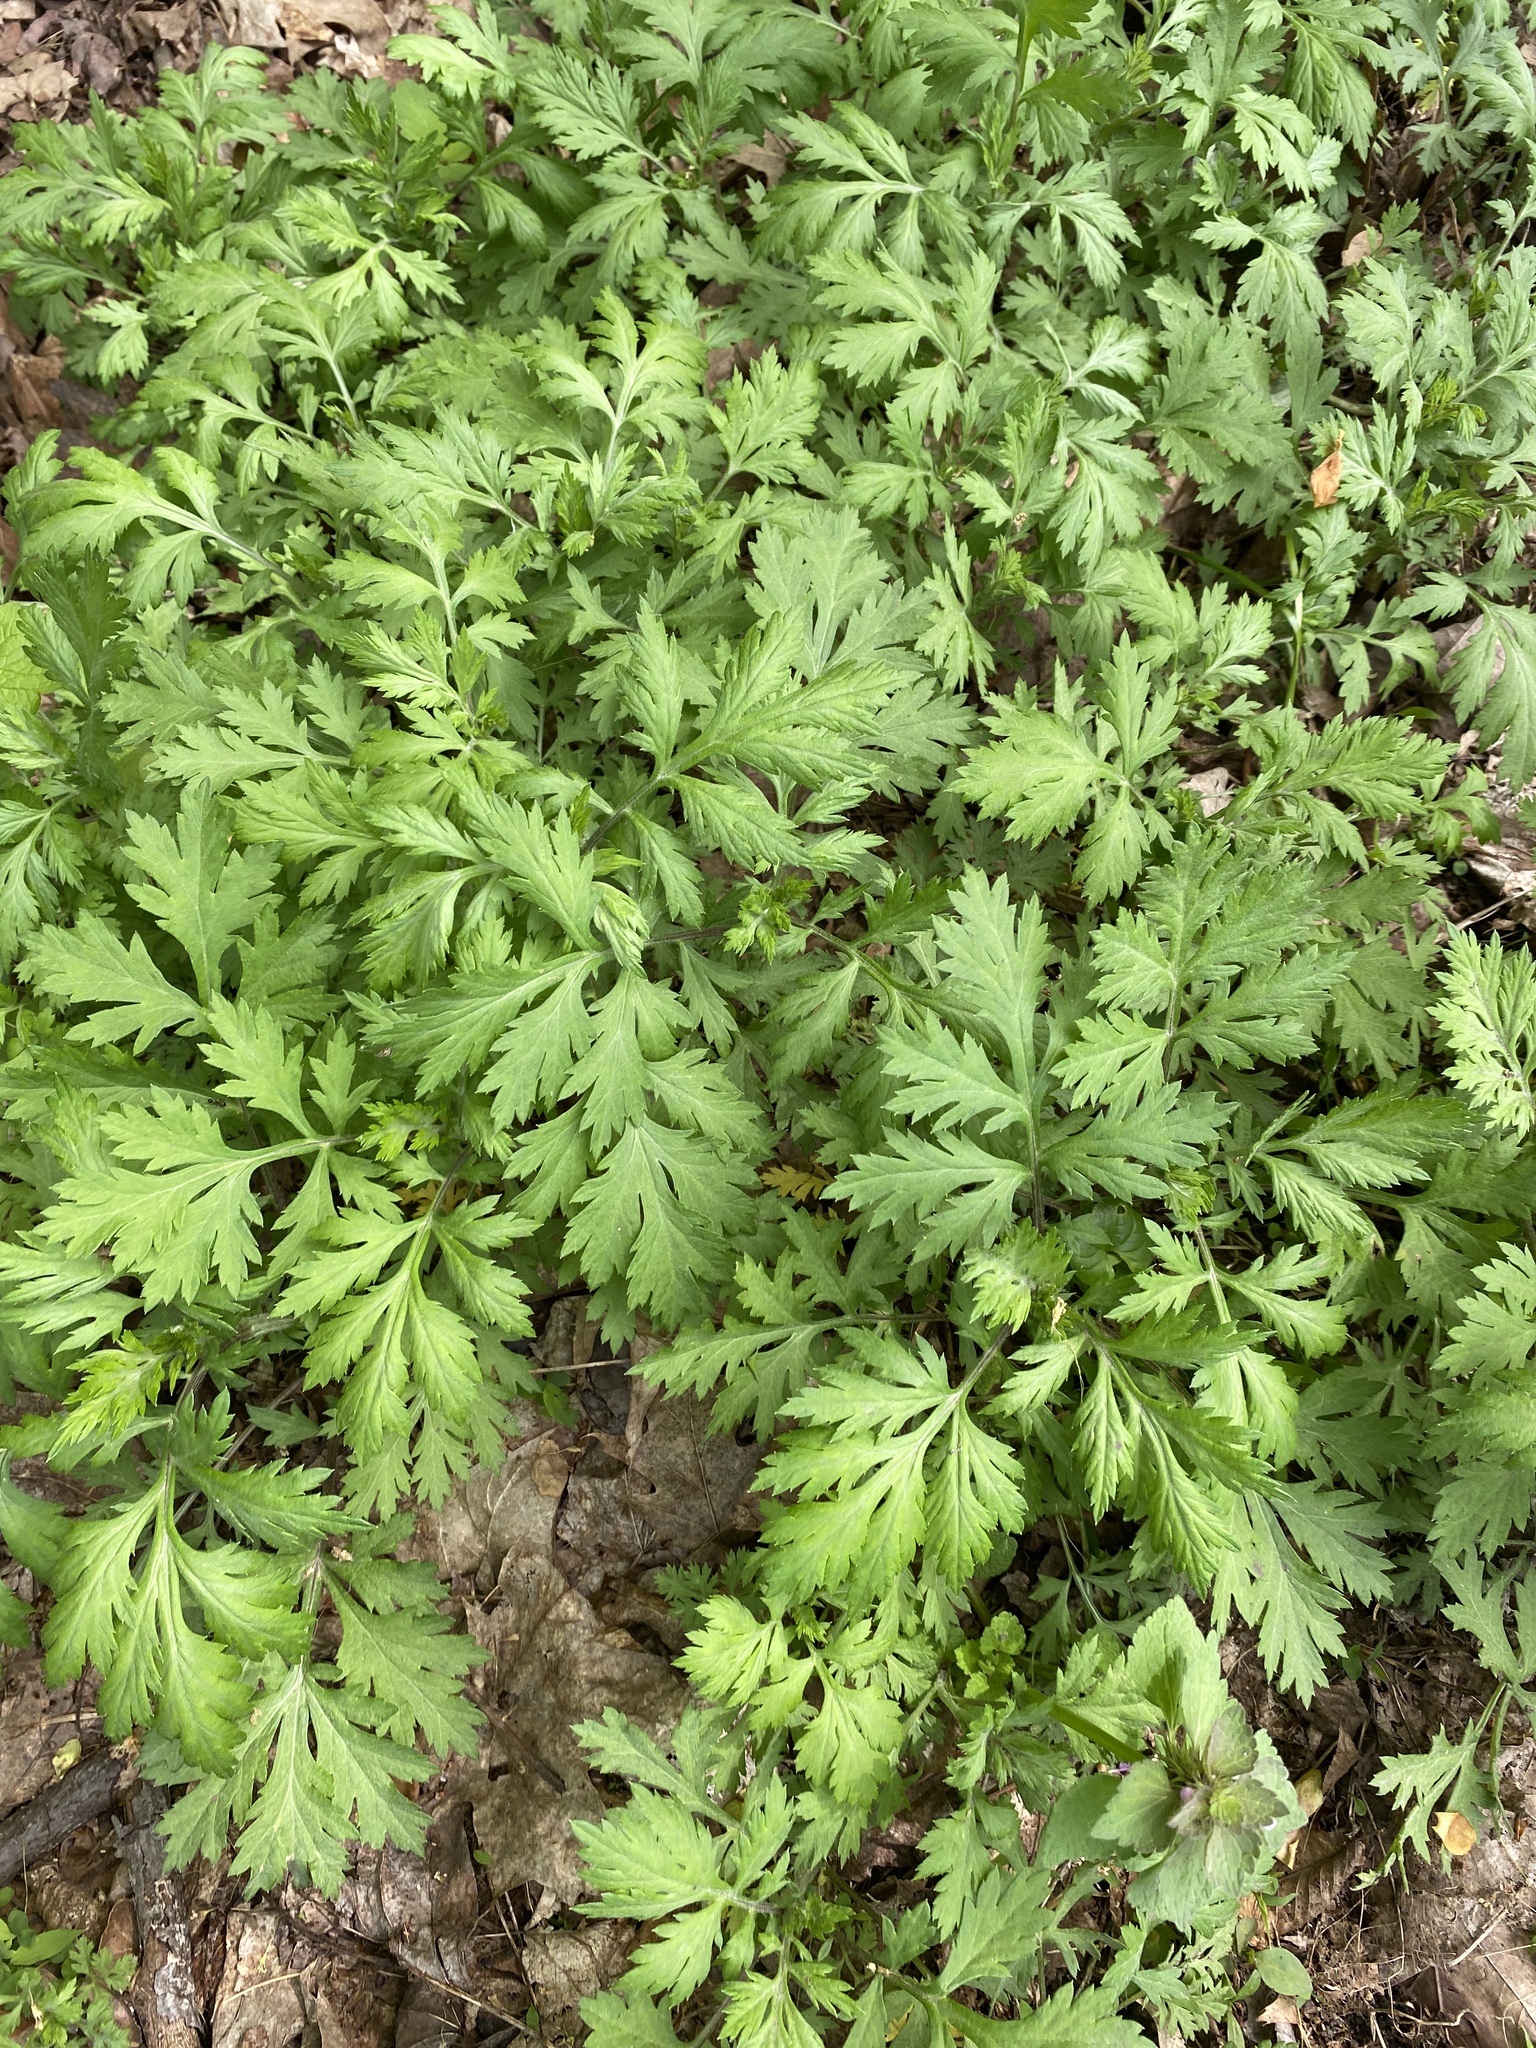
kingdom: Plantae
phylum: Tracheophyta
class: Magnoliopsida
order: Asterales
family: Asteraceae
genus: Artemisia
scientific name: Artemisia vulgaris
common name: Mugwort
